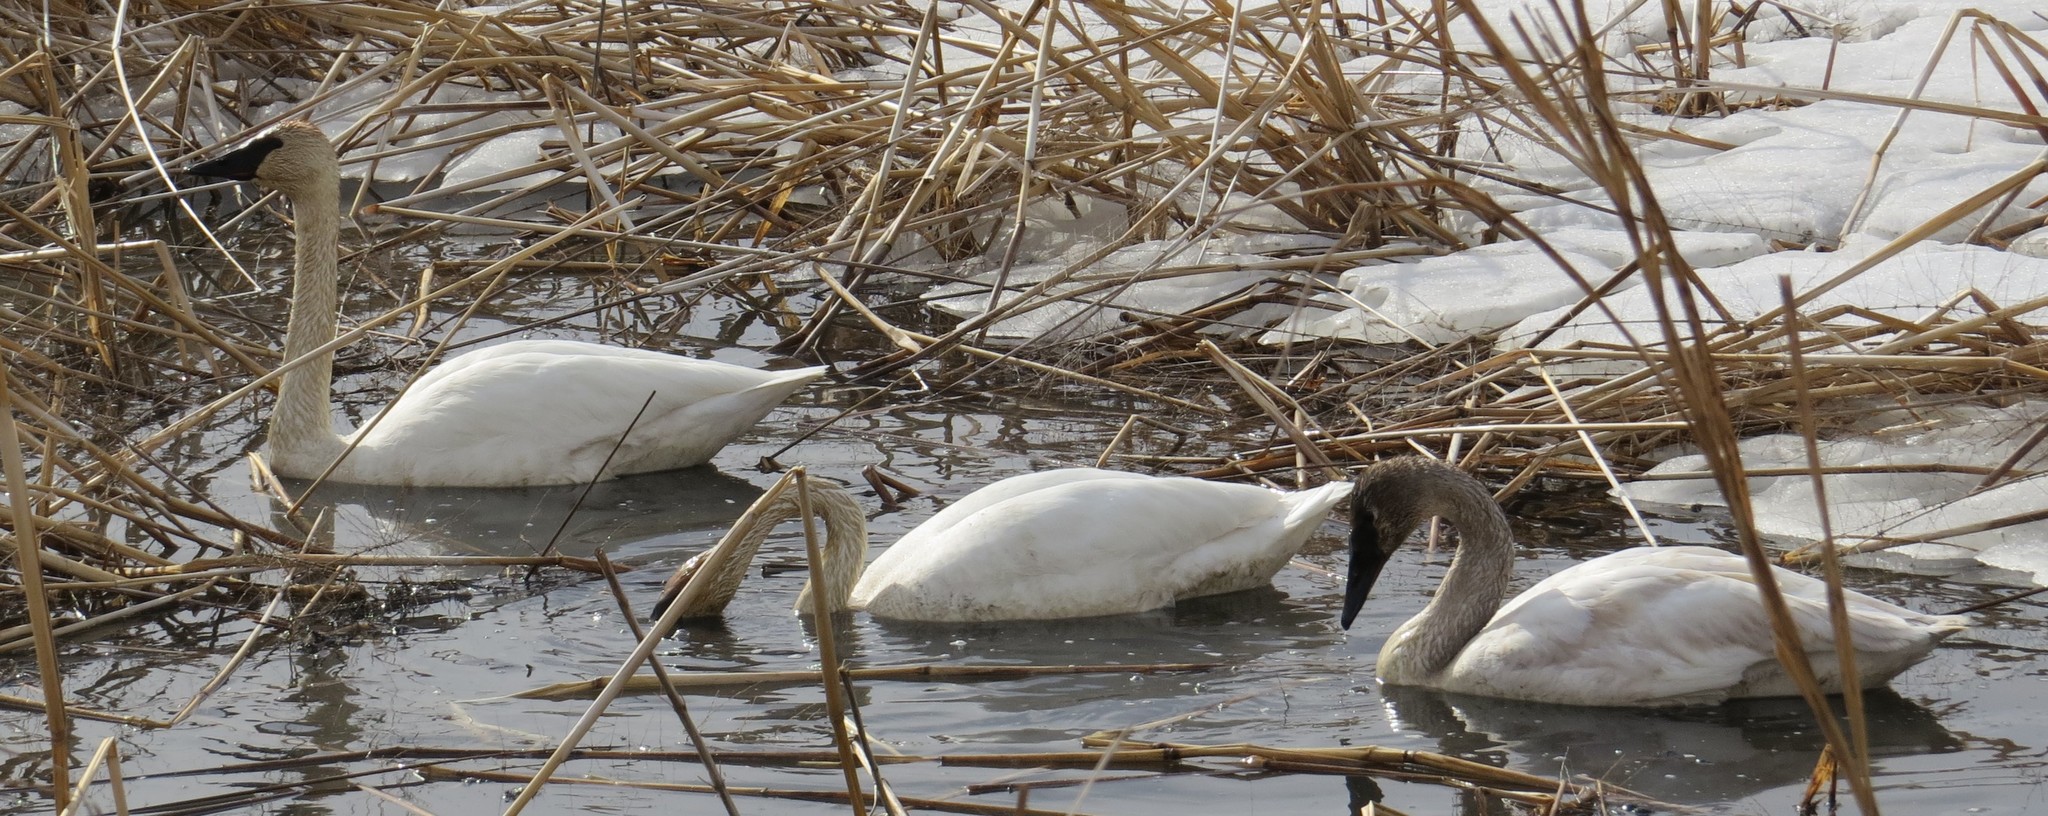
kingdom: Animalia
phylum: Chordata
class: Aves
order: Anseriformes
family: Anatidae
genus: Cygnus
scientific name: Cygnus buccinator
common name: Trumpeter swan
